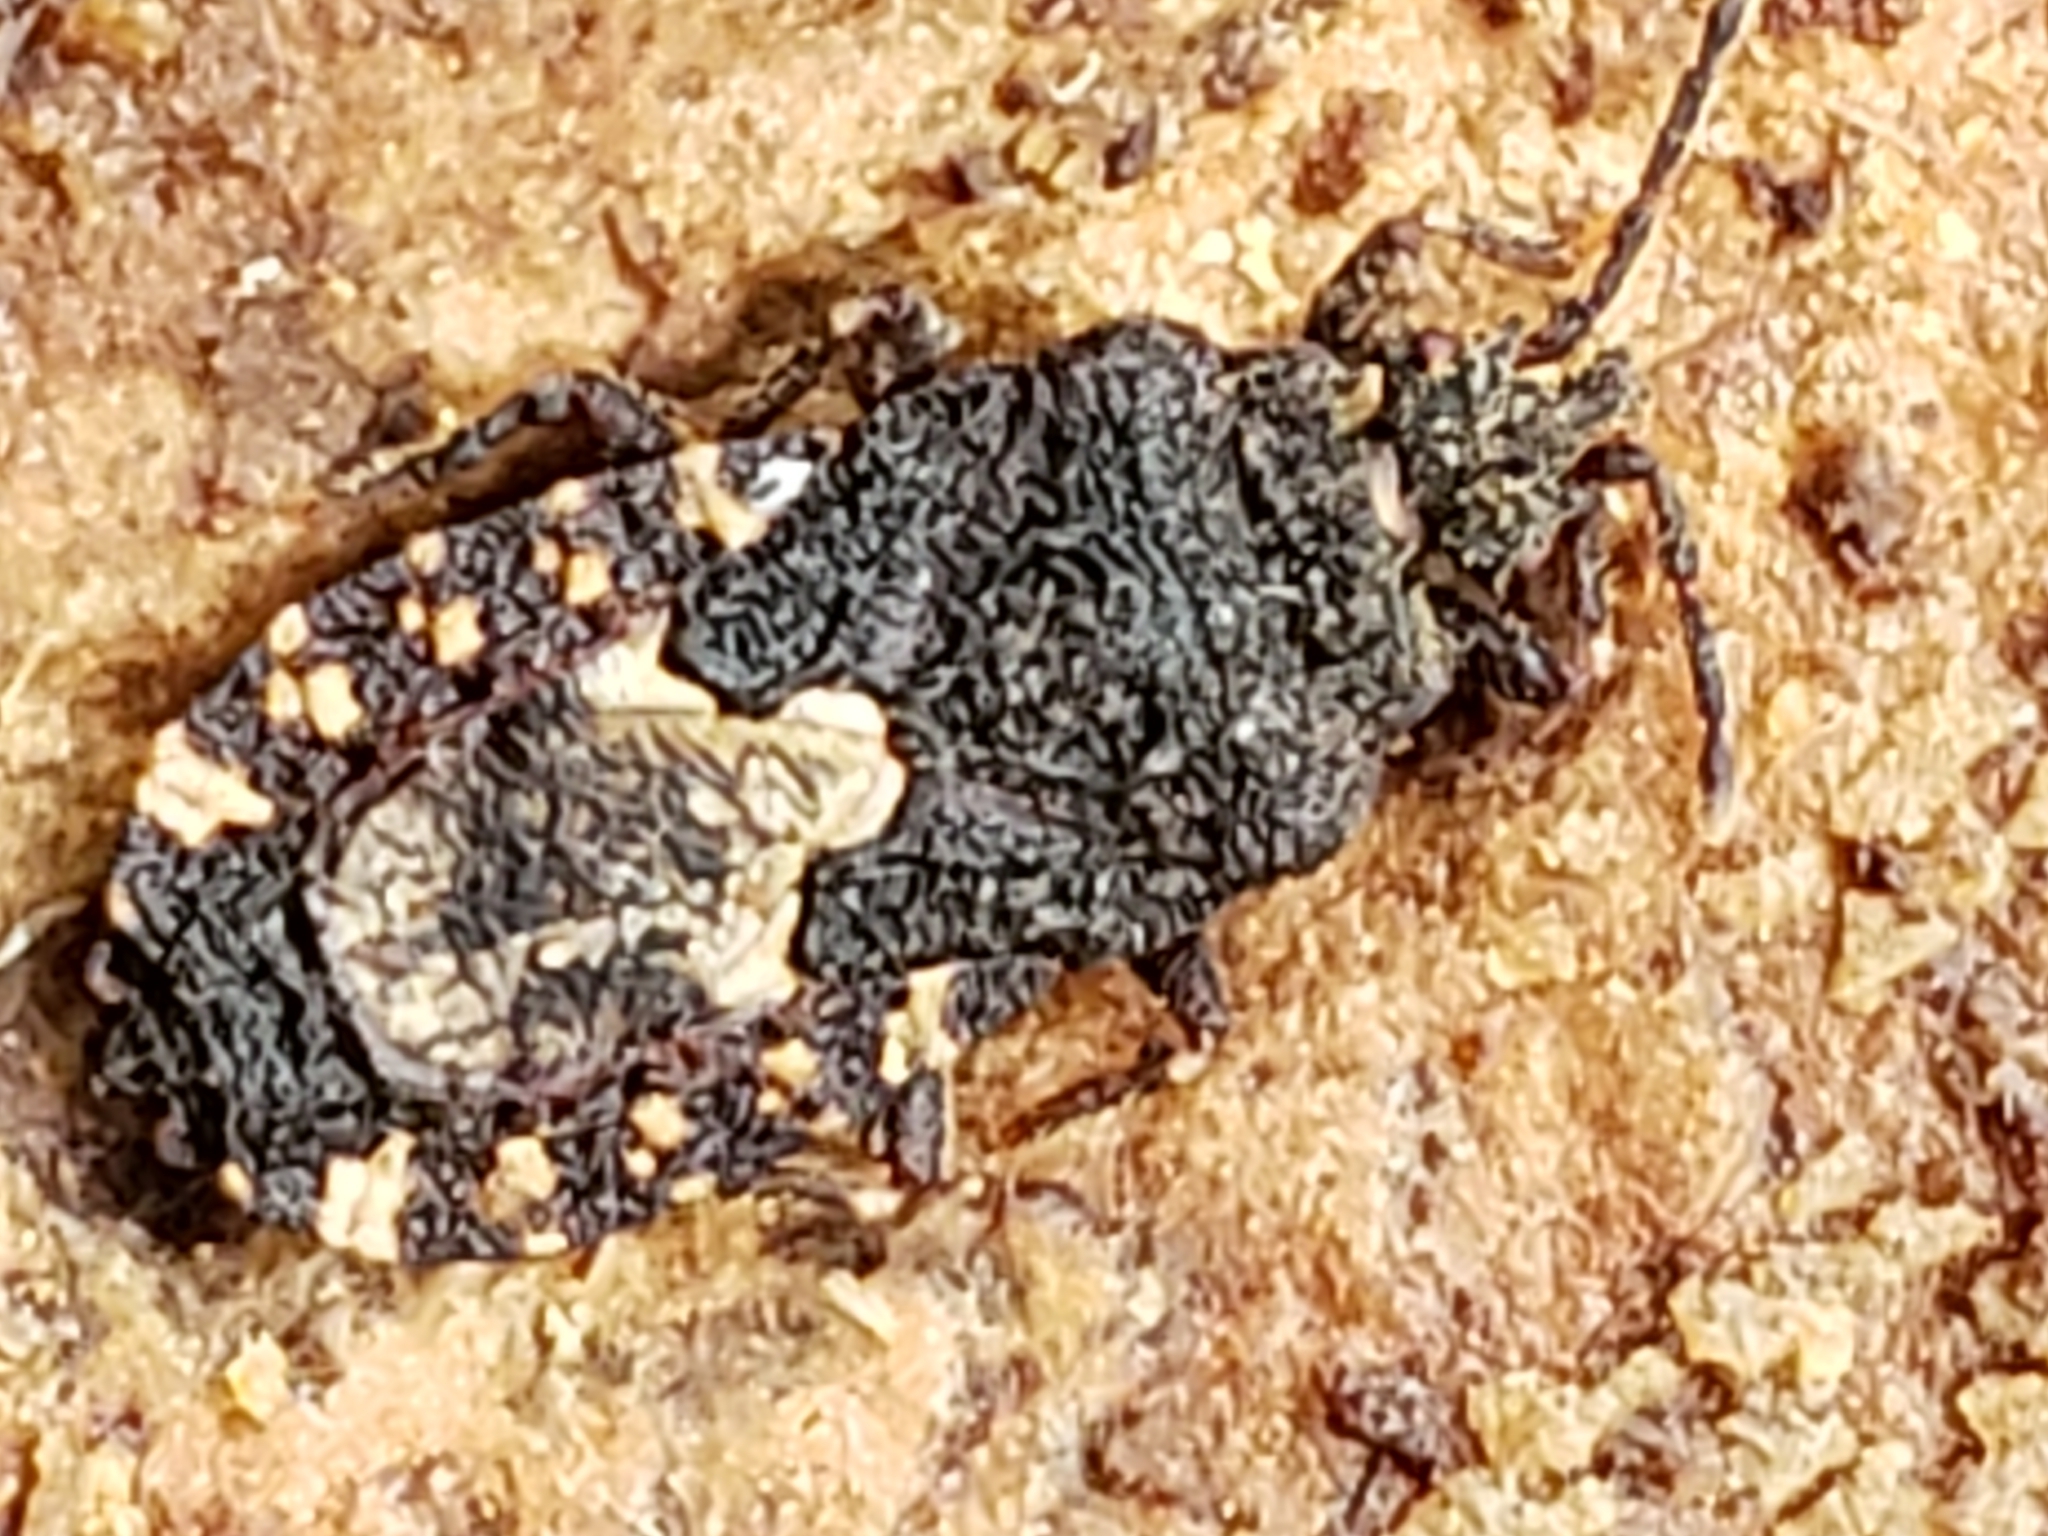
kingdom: Animalia
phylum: Arthropoda
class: Insecta
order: Hemiptera
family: Aradidae
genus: Mezira
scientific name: Mezira
